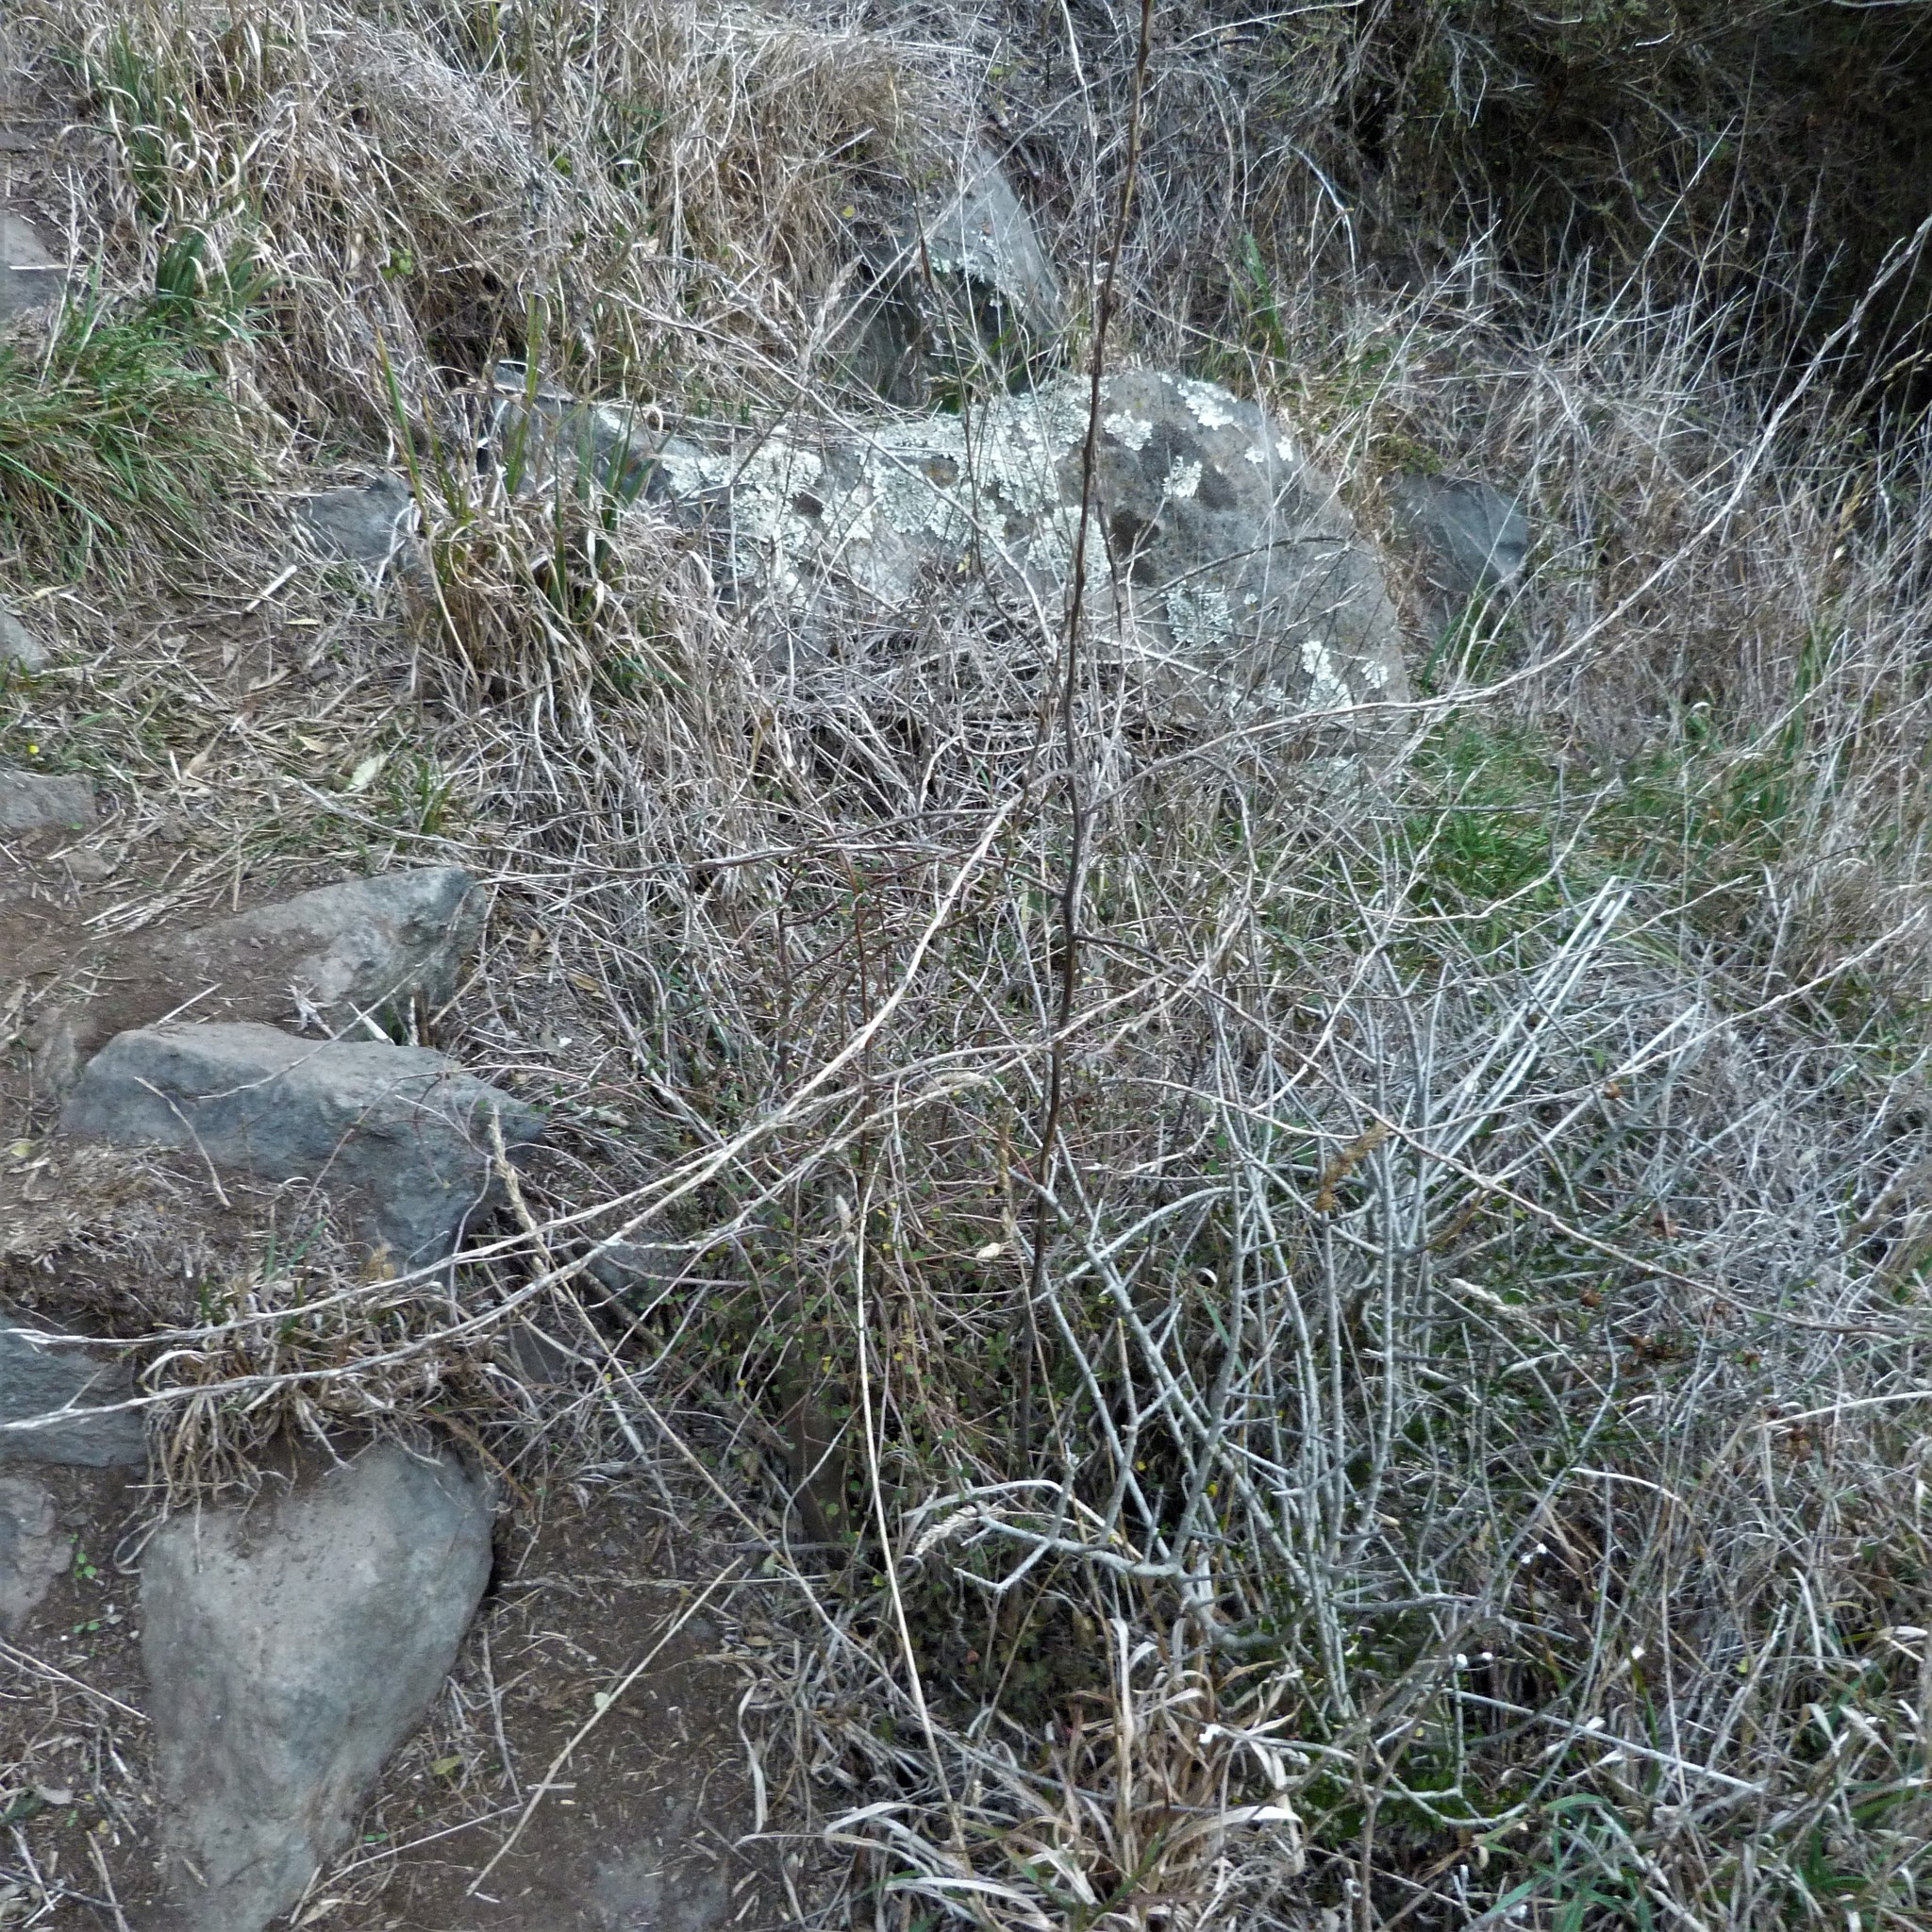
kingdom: Plantae
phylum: Tracheophyta
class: Magnoliopsida
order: Brassicales
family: Brassicaceae
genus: Sisymbrium
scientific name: Sisymbrium officinale
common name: Hedge mustard
